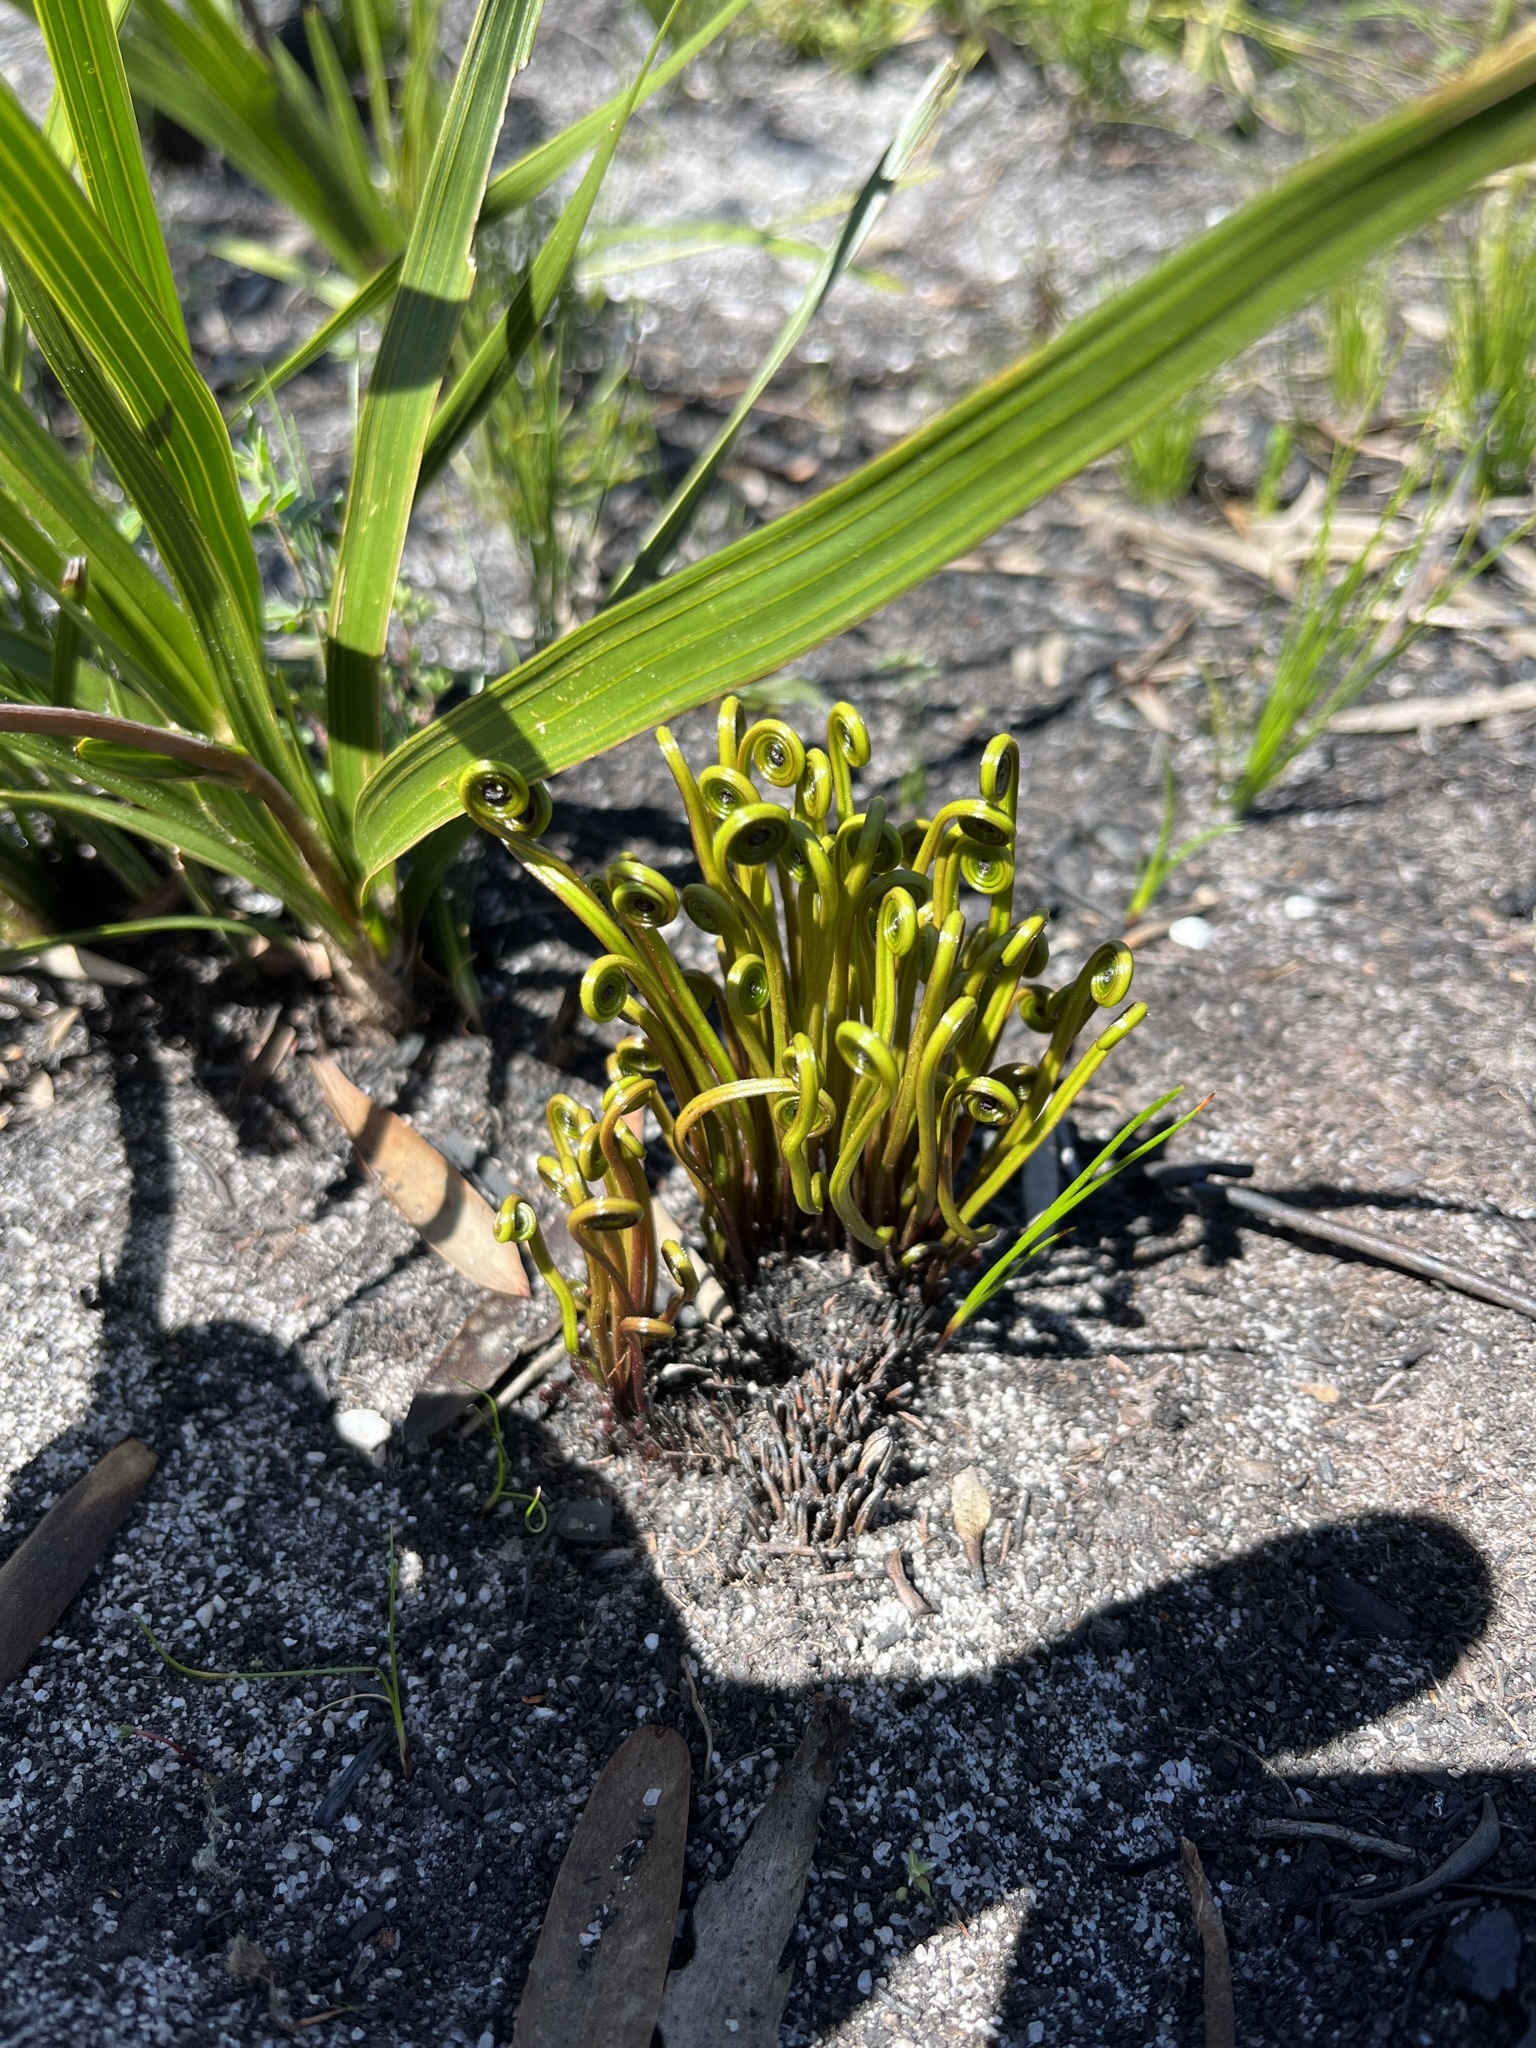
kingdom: Plantae
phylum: Tracheophyta
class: Polypodiopsida
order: Schizaeales
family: Schizaeaceae
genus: Schizaea
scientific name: Schizaea pectinata
